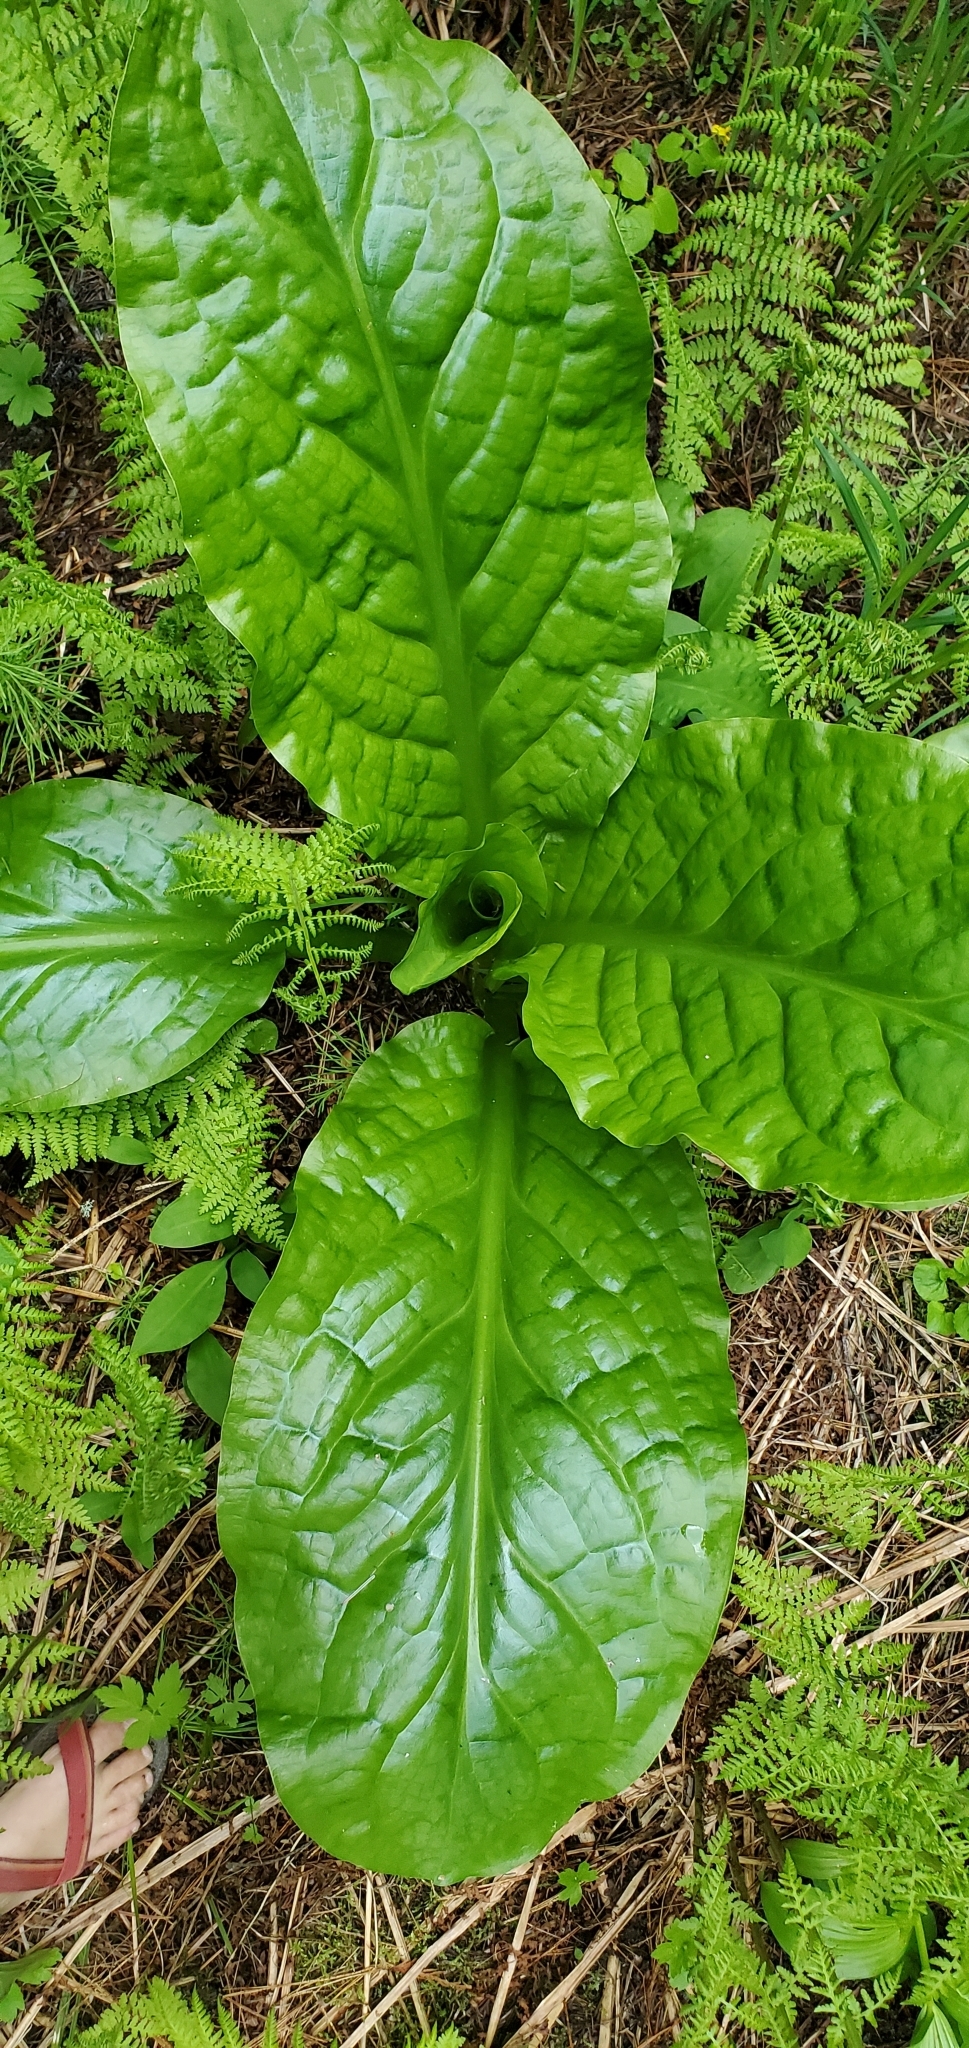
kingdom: Plantae
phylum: Tracheophyta
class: Liliopsida
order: Alismatales
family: Araceae
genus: Lysichiton
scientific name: Lysichiton americanus
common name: American skunk cabbage
